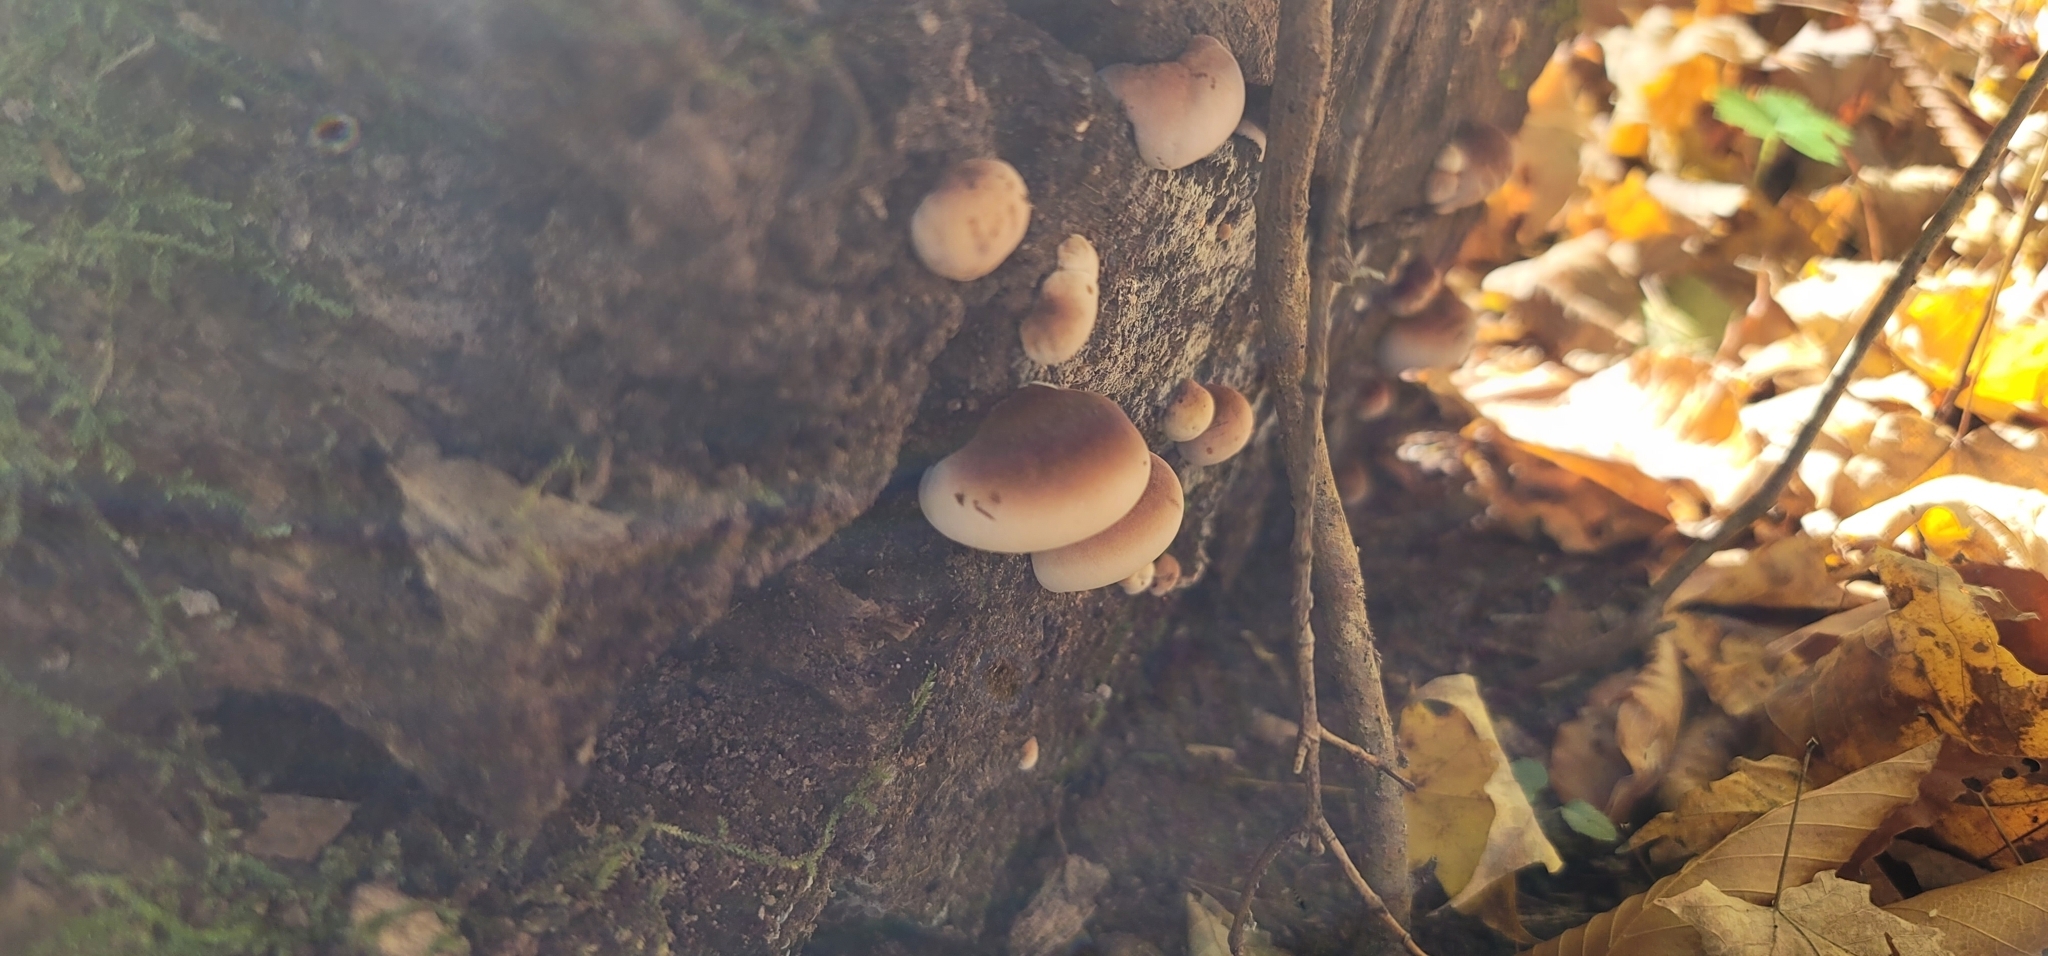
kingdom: Fungi
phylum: Basidiomycota
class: Agaricomycetes
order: Polyporales
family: Ischnodermataceae
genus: Ischnoderma
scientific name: Ischnoderma resinosum
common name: Resinous polypore
